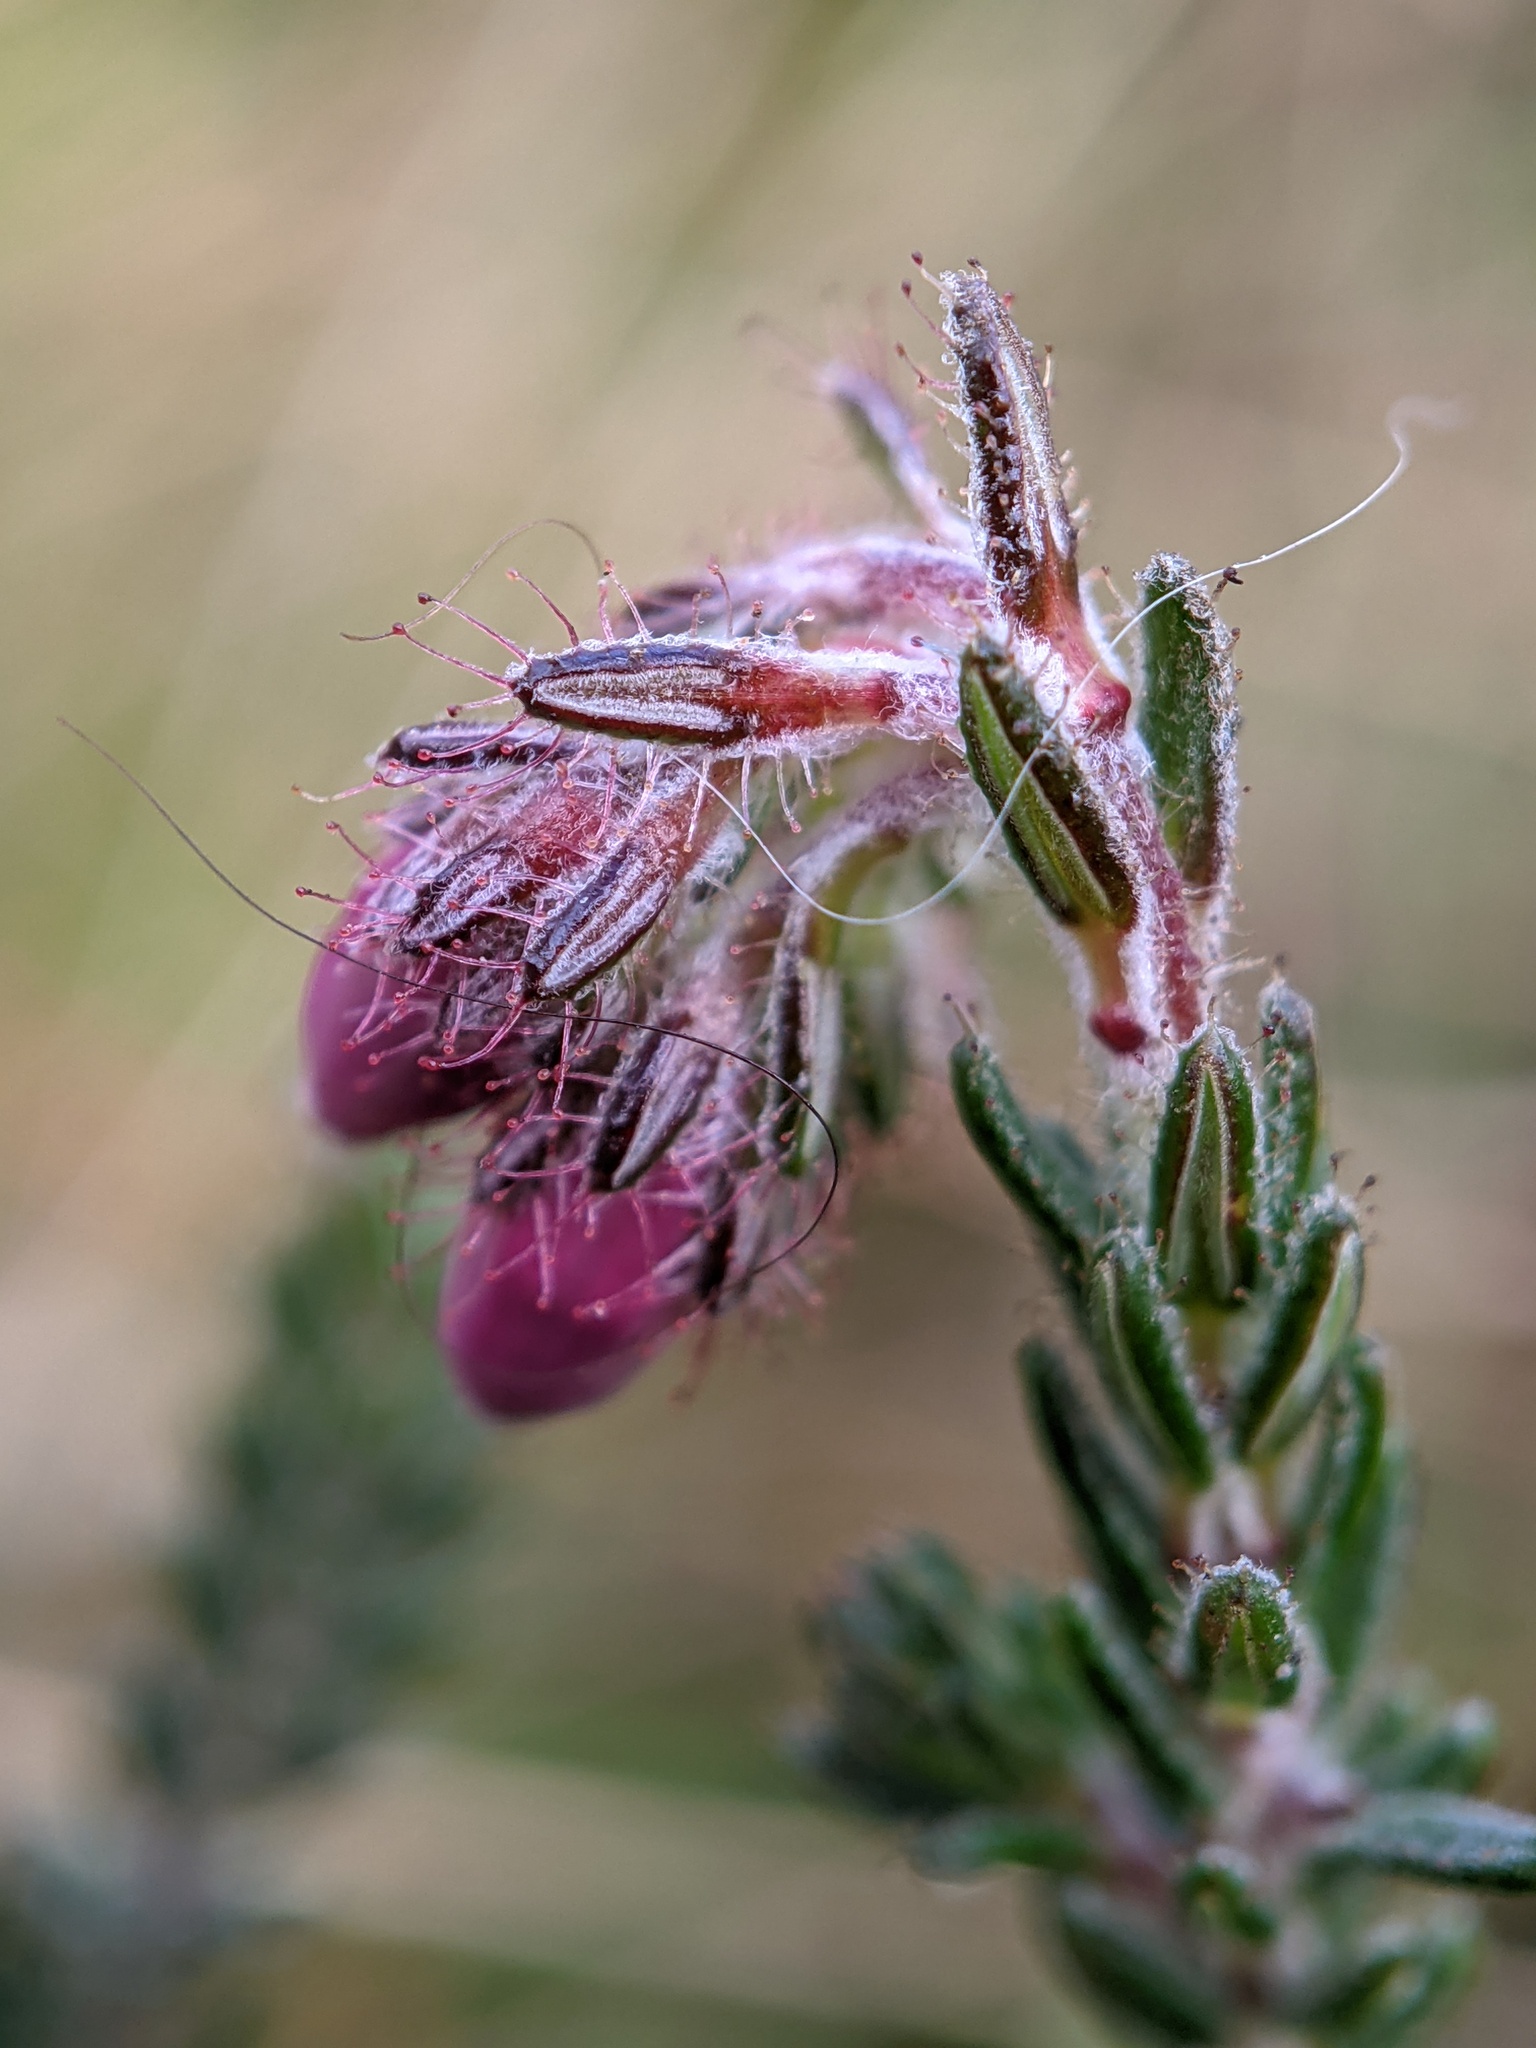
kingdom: Plantae
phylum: Tracheophyta
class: Magnoliopsida
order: Ericales
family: Ericaceae
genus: Erica
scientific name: Erica tetralix
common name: Cross-leaved heath
